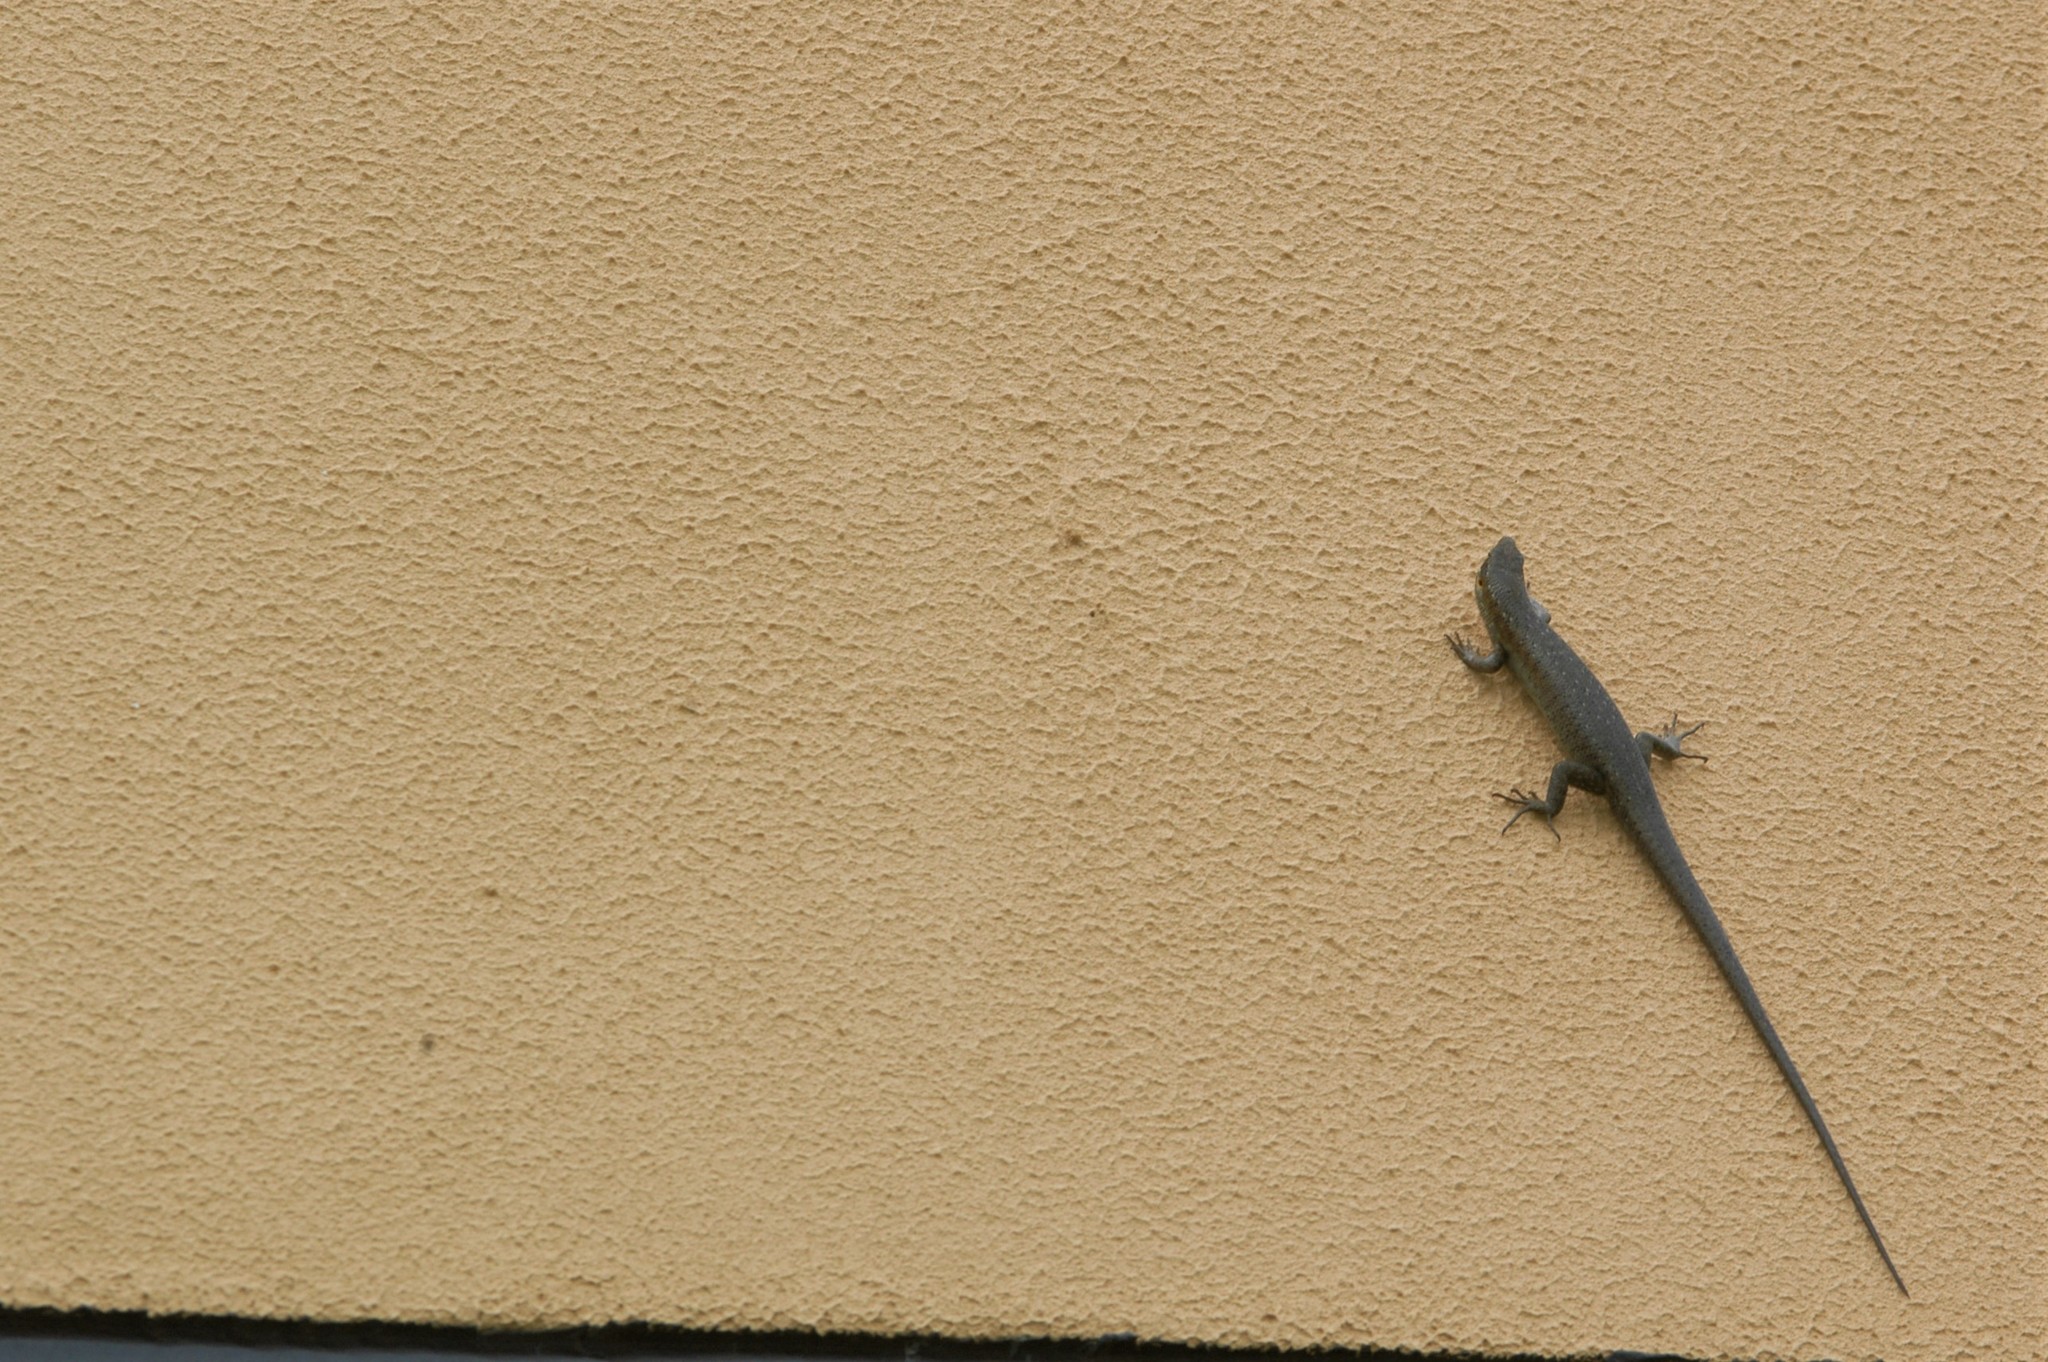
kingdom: Animalia
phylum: Chordata
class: Squamata
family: Scincidae
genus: Trachylepis
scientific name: Trachylepis thomensis
